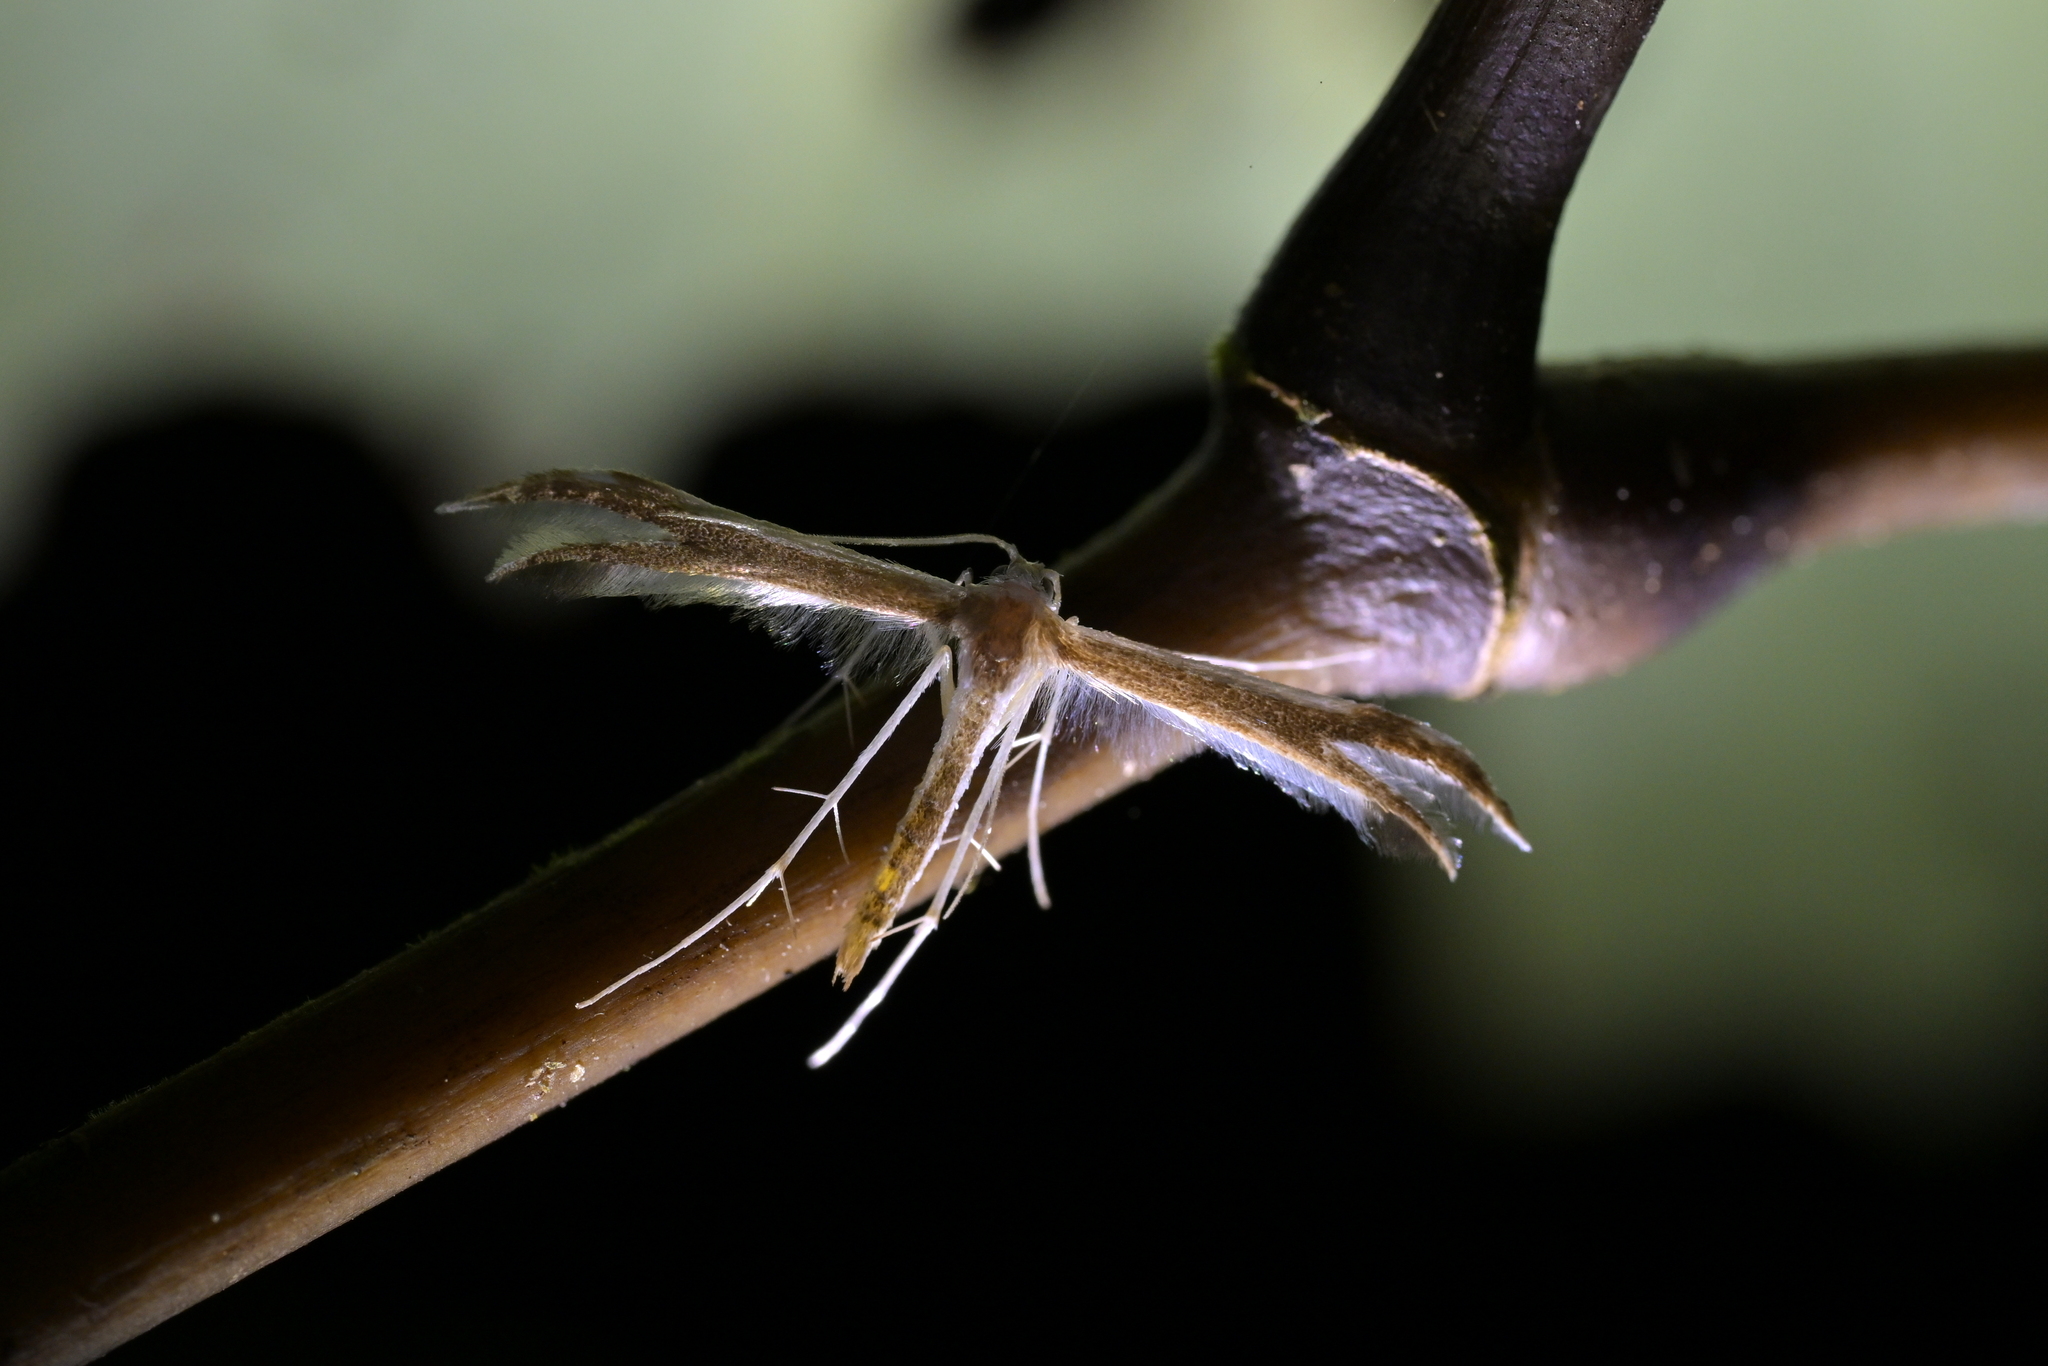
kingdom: Animalia
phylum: Arthropoda
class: Insecta
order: Lepidoptera
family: Pterophoridae
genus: Pterophorus
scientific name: Pterophorus furcatalis
